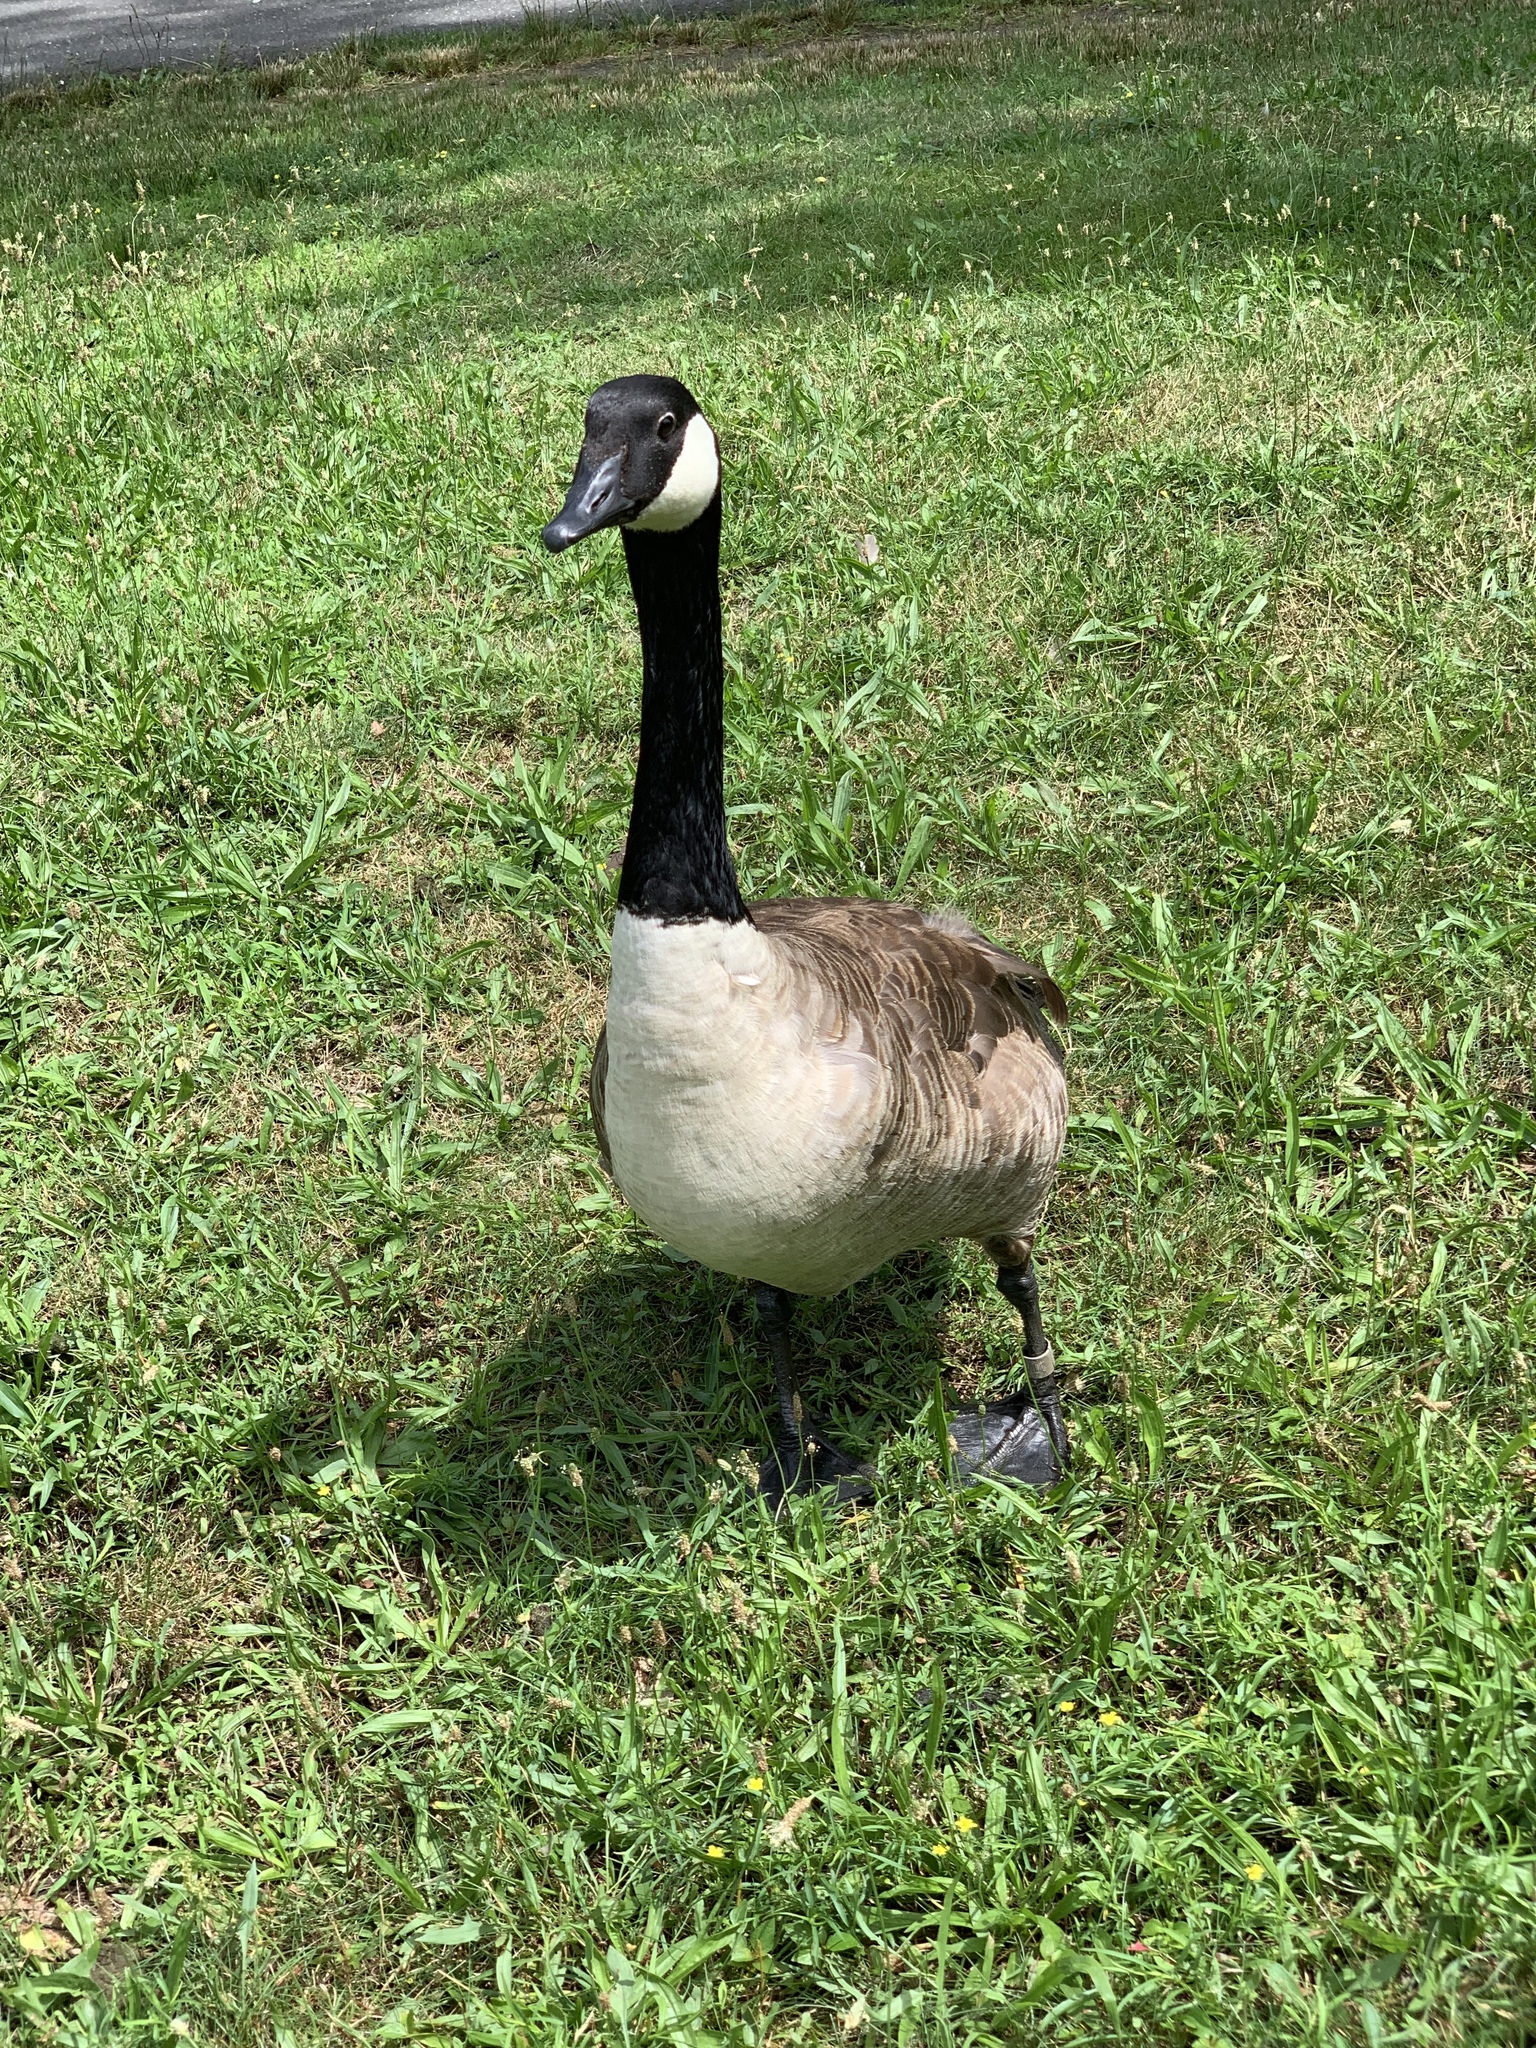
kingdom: Animalia
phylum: Chordata
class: Aves
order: Anseriformes
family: Anatidae
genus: Branta
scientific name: Branta canadensis
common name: Canada goose
